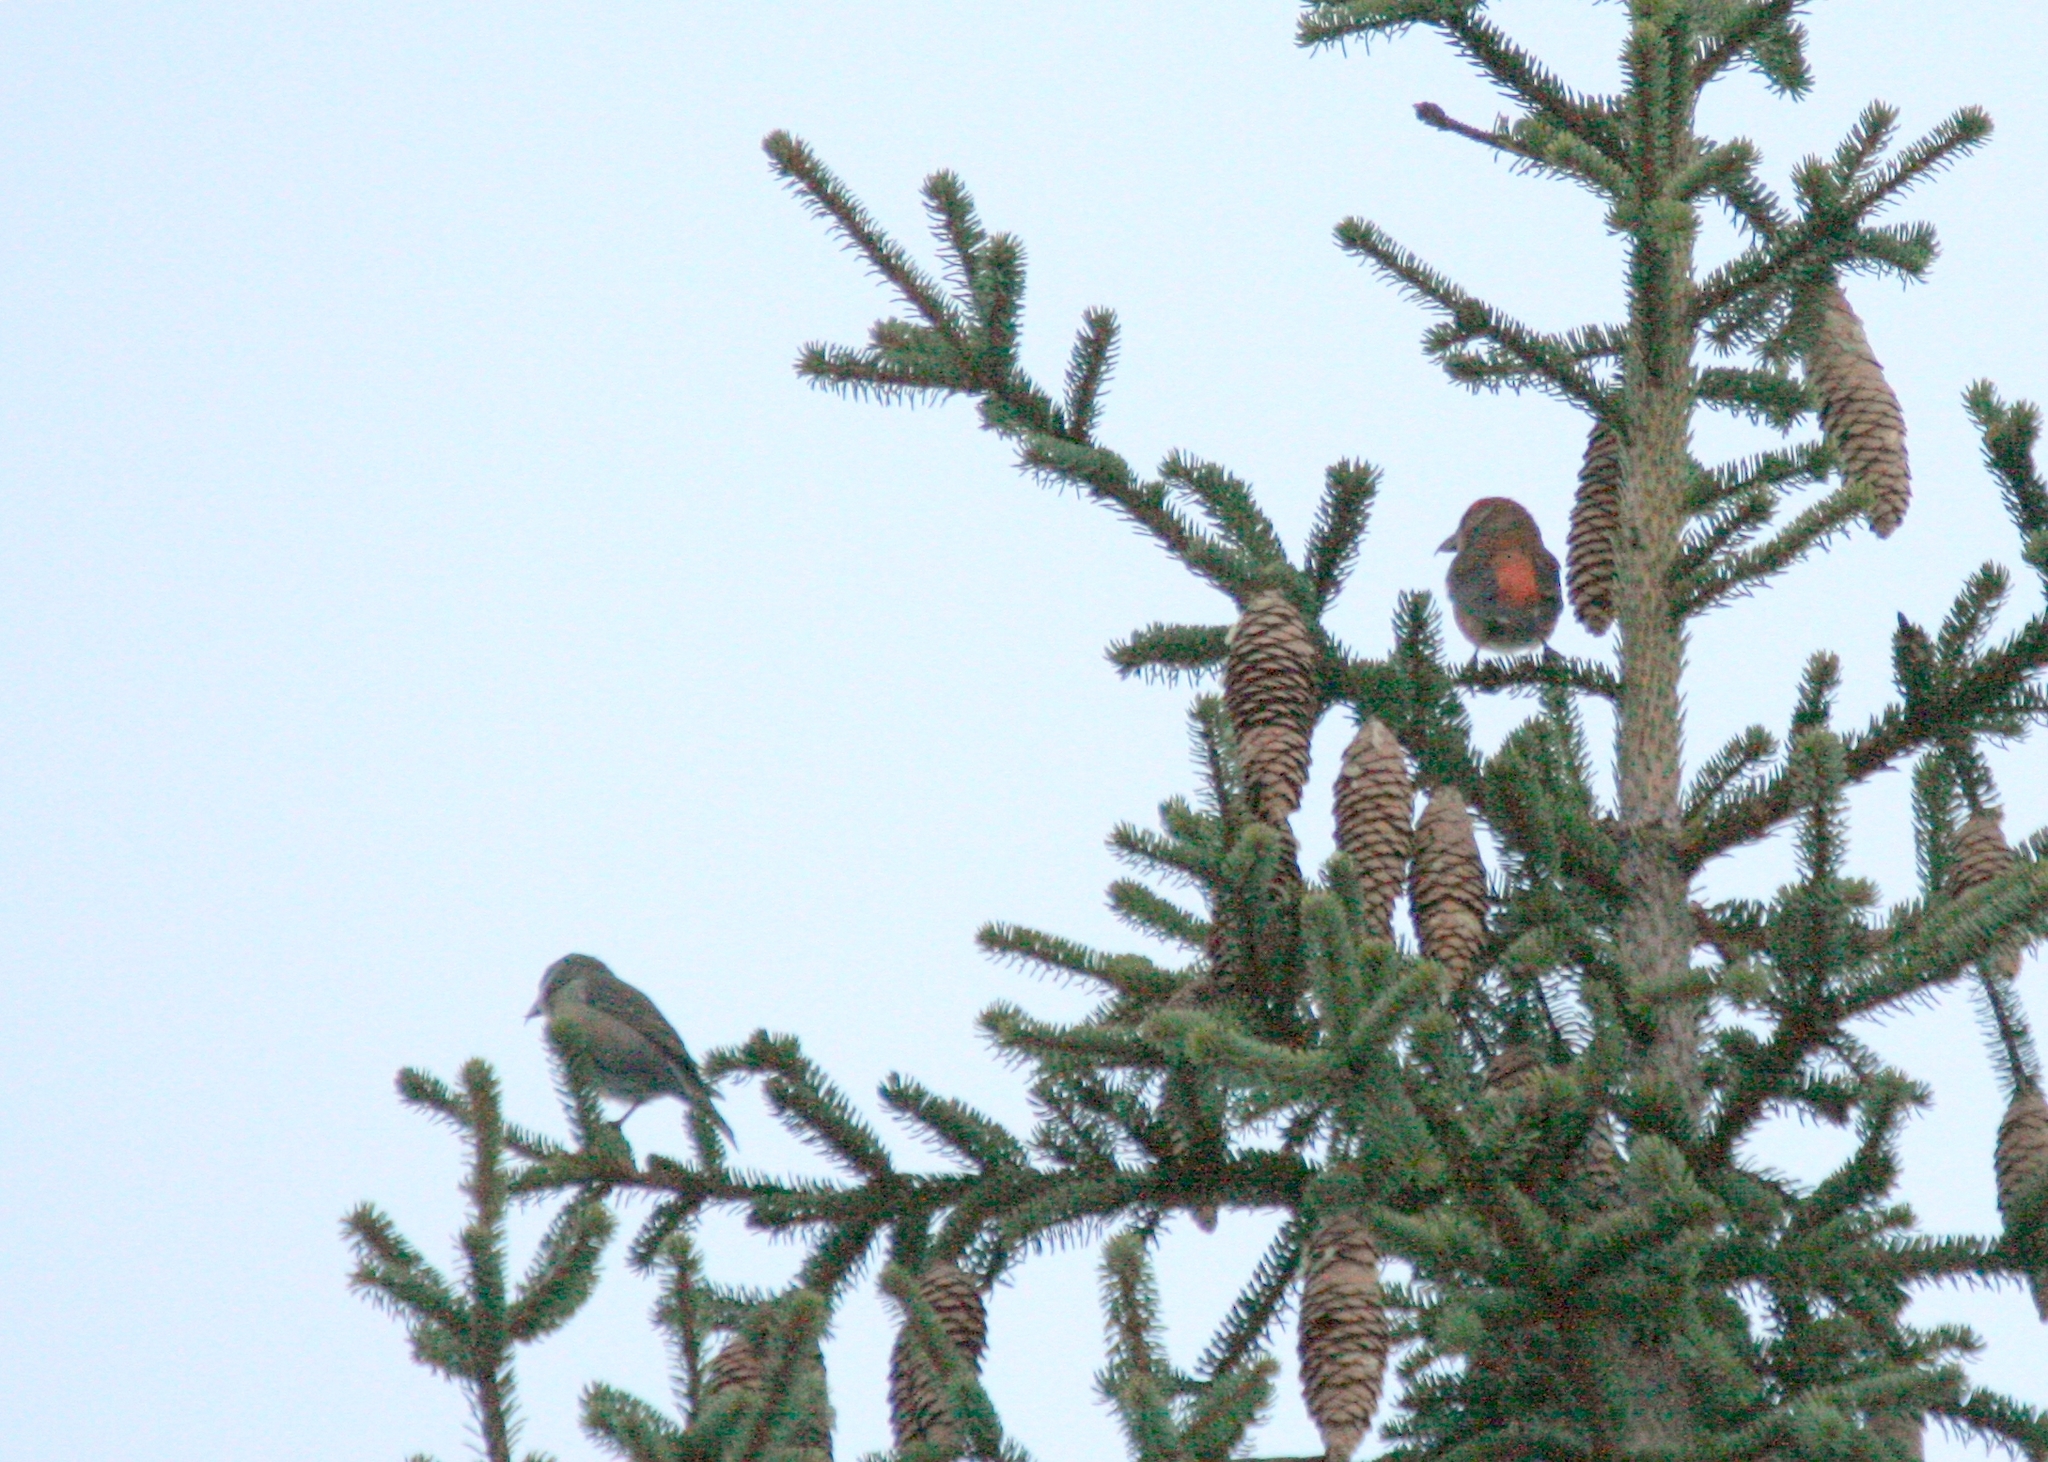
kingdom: Animalia
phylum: Chordata
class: Aves
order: Passeriformes
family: Fringillidae
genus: Loxia
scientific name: Loxia curvirostra
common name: Red crossbill
